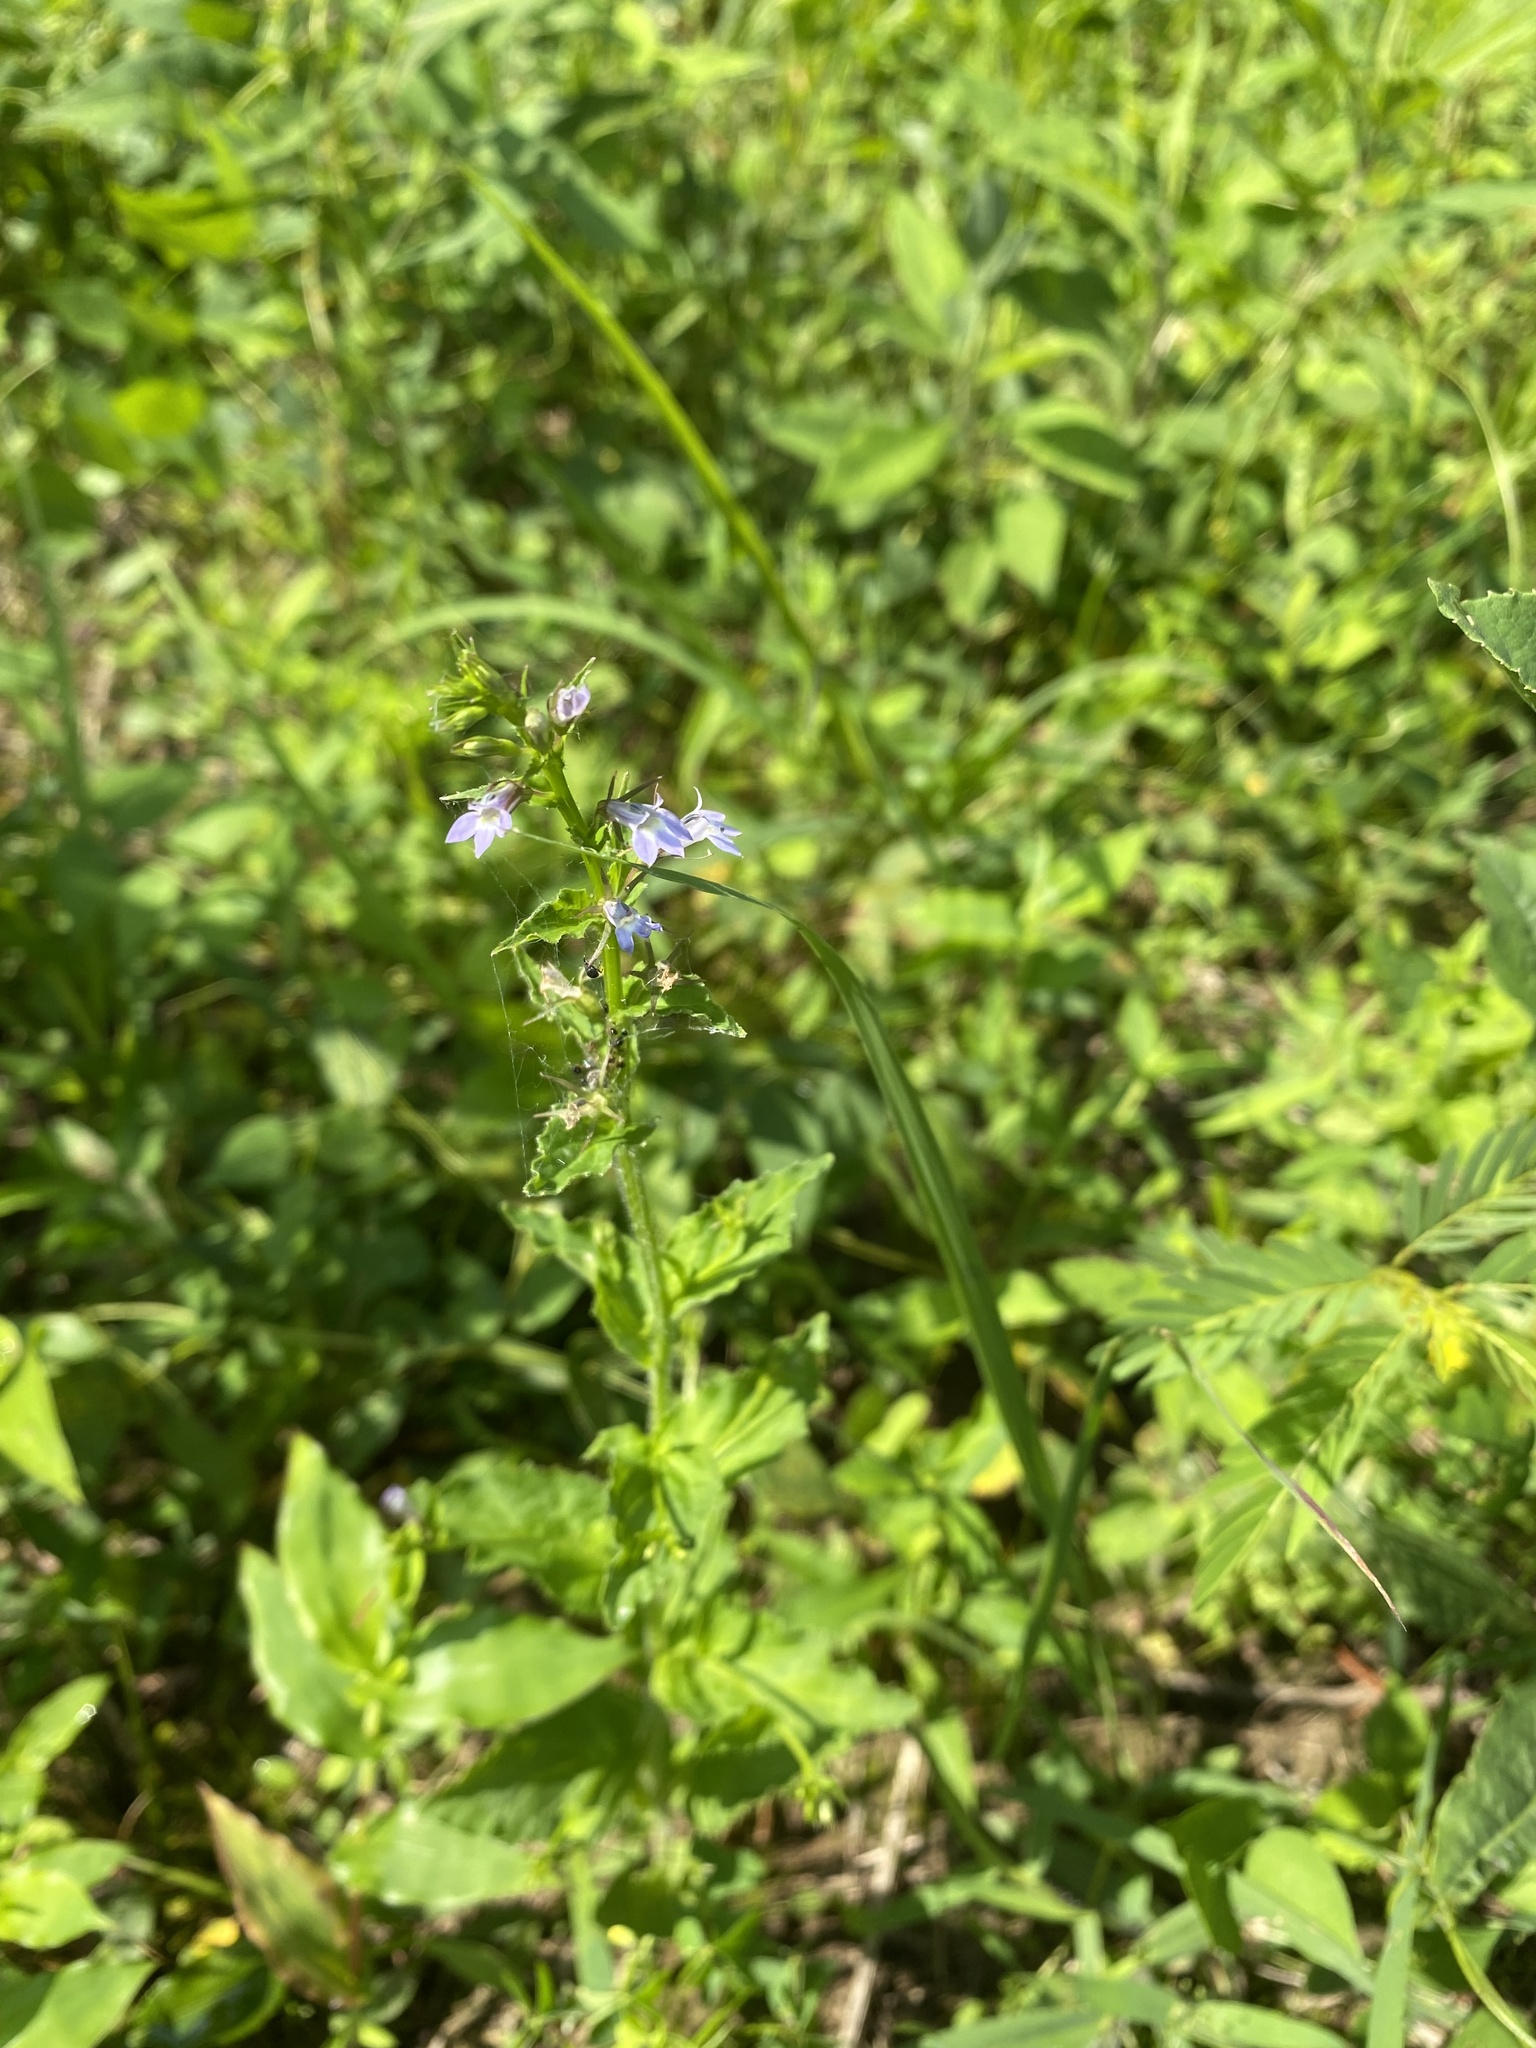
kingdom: Plantae
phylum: Tracheophyta
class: Magnoliopsida
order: Asterales
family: Campanulaceae
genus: Lobelia
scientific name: Lobelia inflata
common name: Indian tobacco
